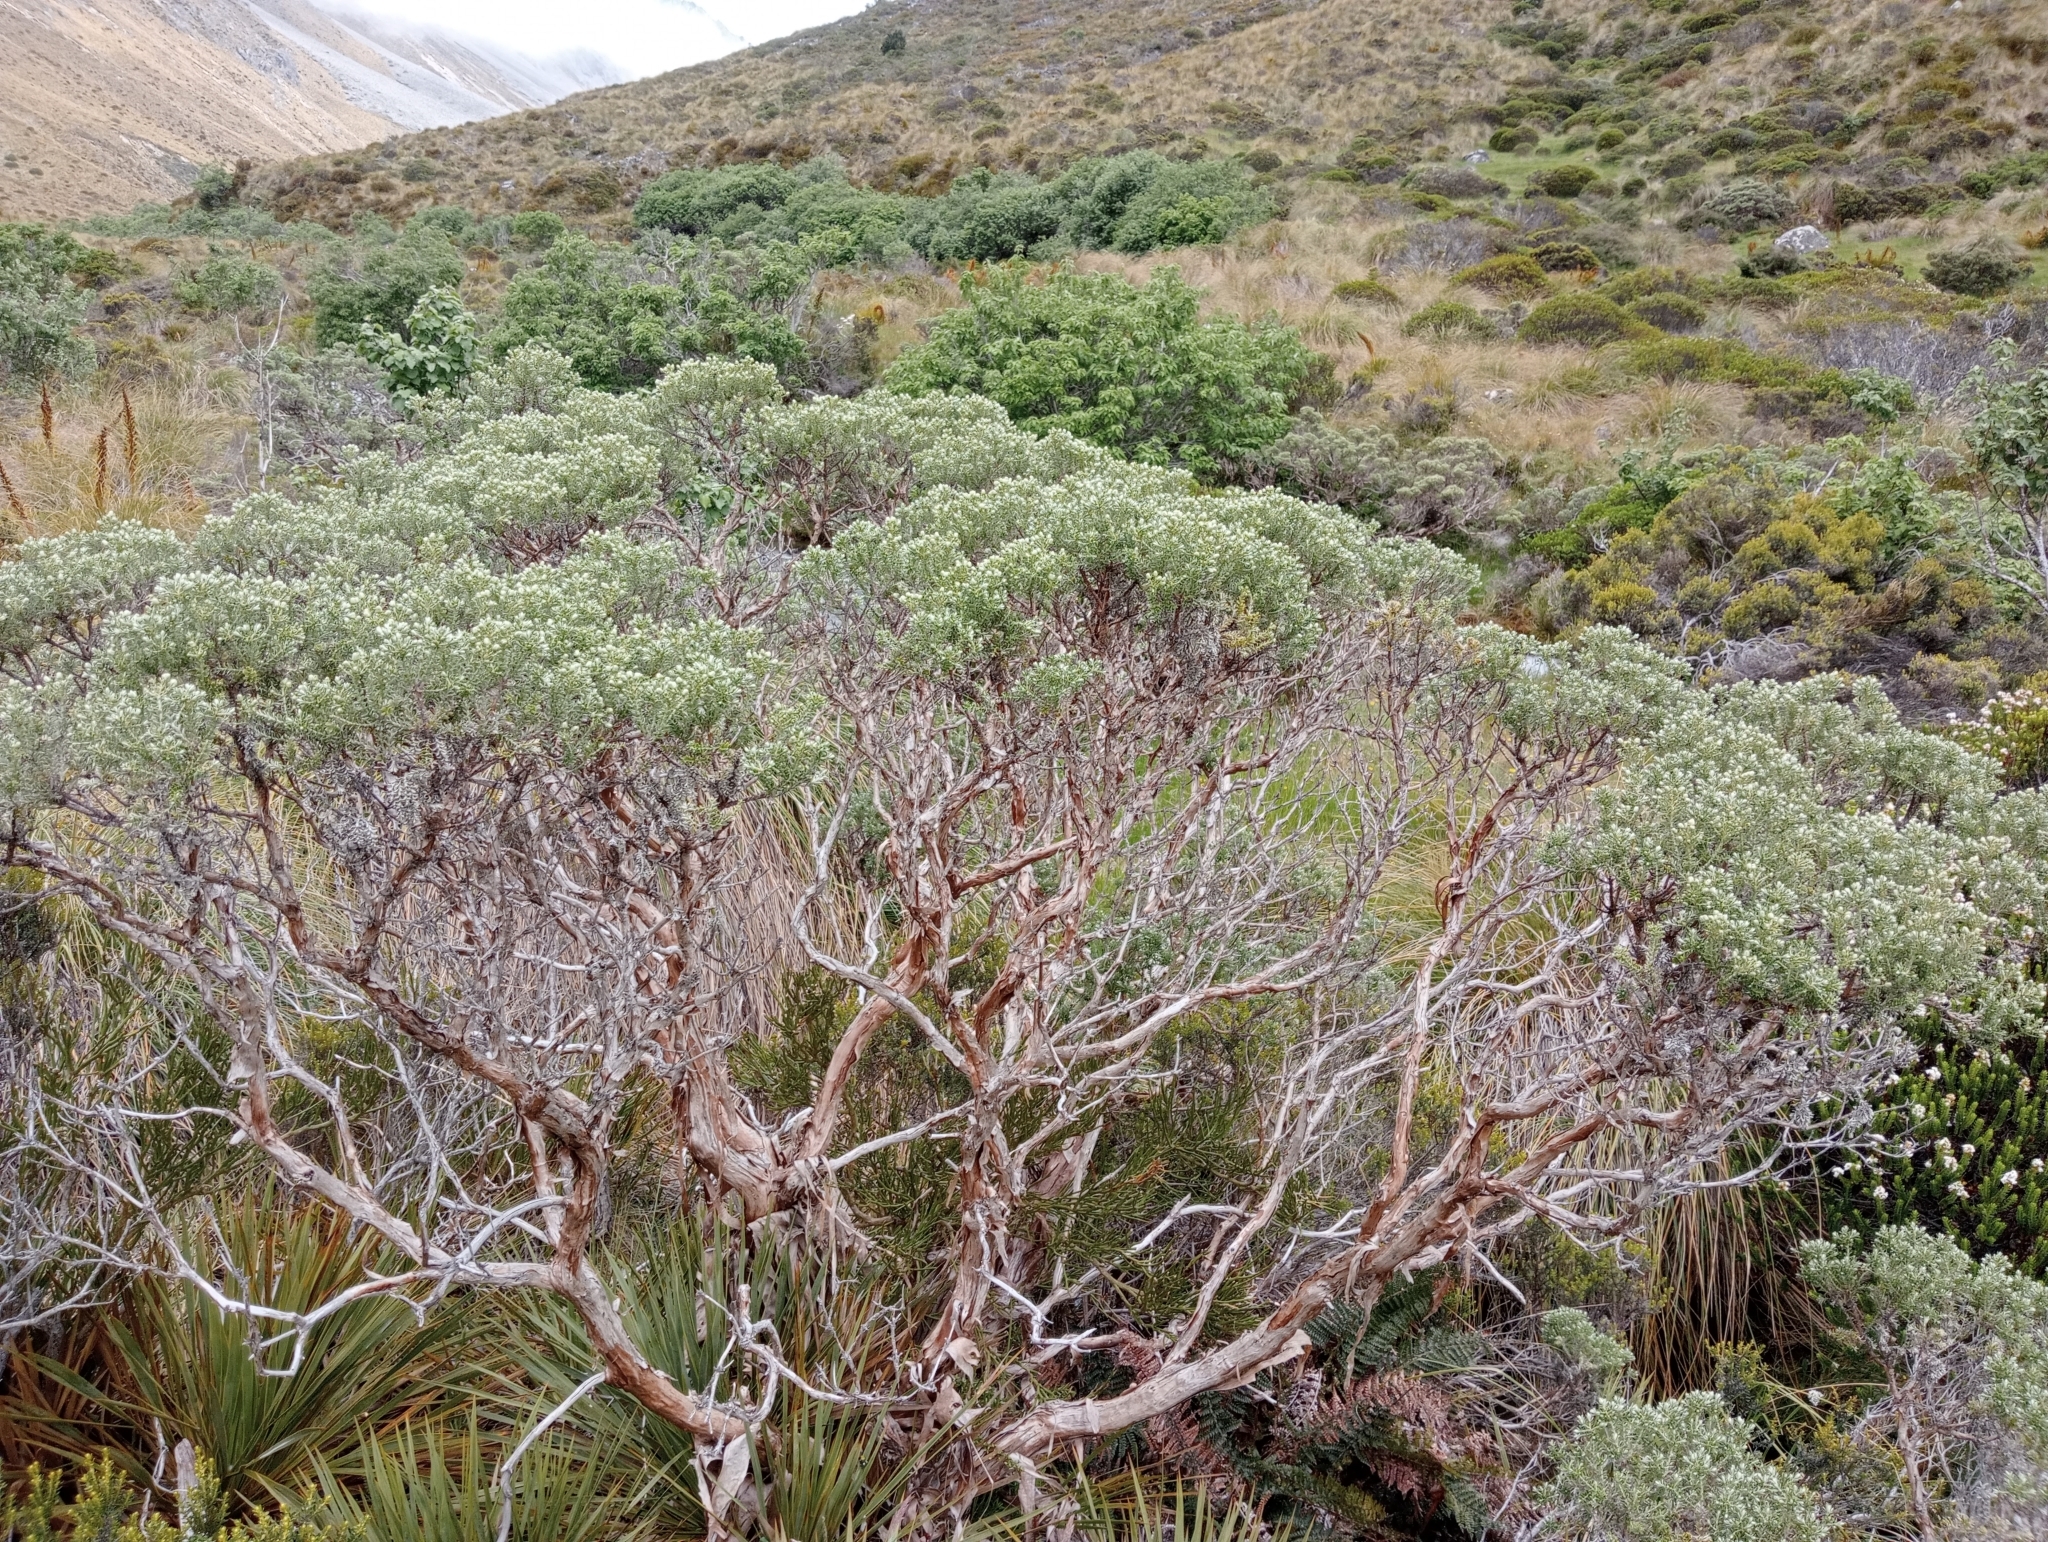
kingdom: Plantae
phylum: Tracheophyta
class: Magnoliopsida
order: Asterales
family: Asteraceae
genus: Brachyglottis
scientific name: Brachyglottis cassinioides
